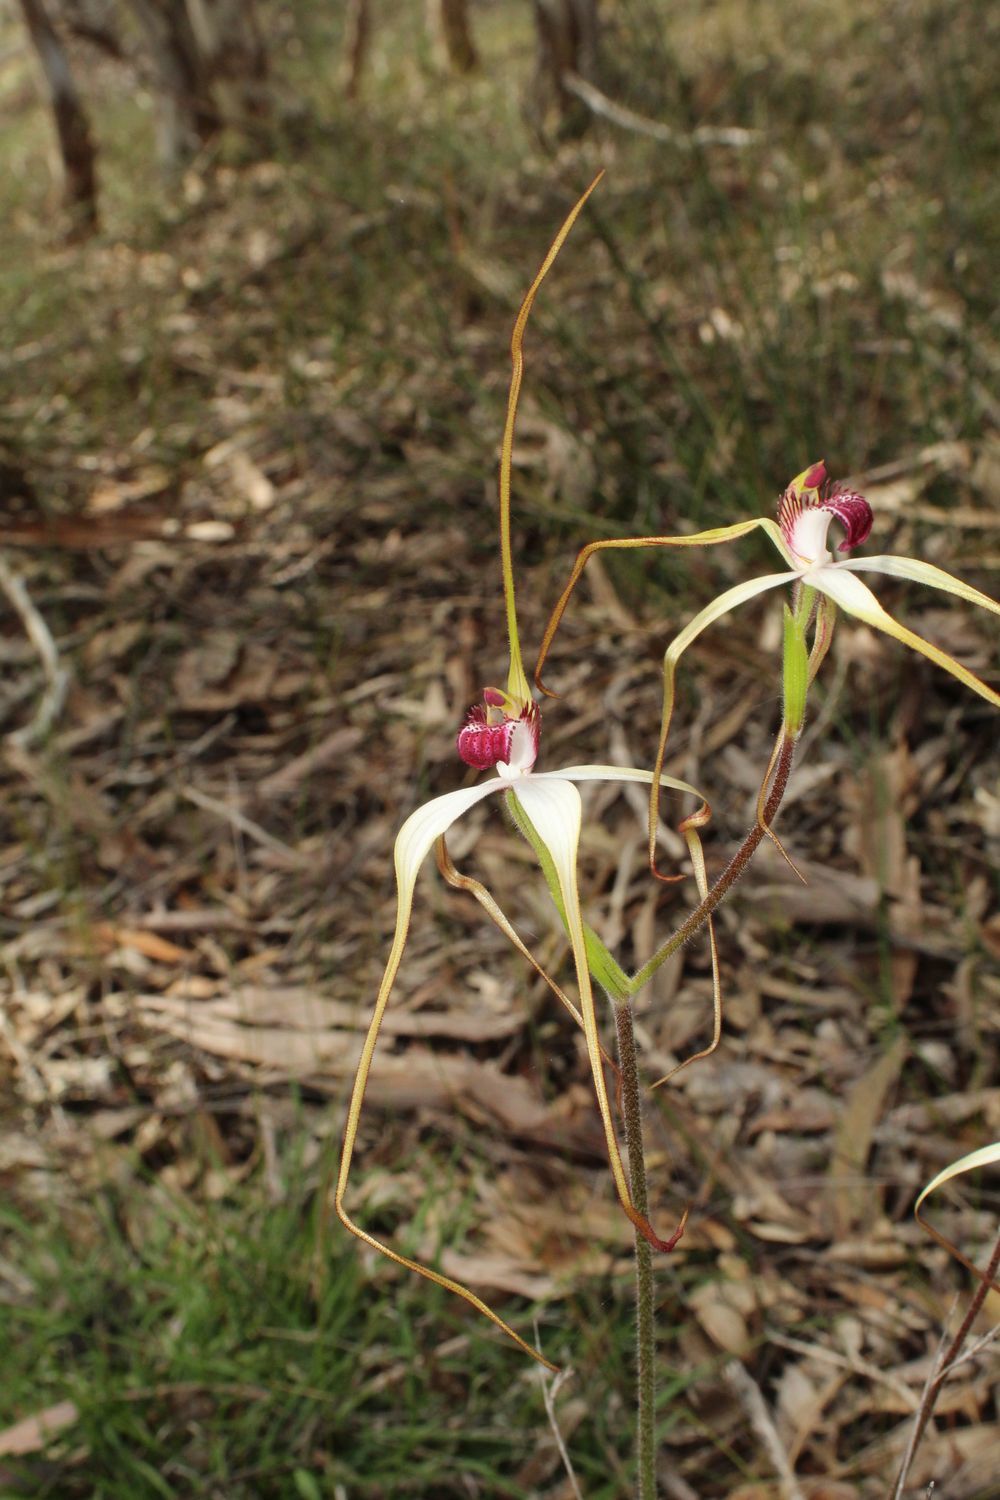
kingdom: Plantae
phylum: Tracheophyta
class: Liliopsida
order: Asparagales
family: Orchidaceae
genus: Caladenia
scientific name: Caladenia exserta
